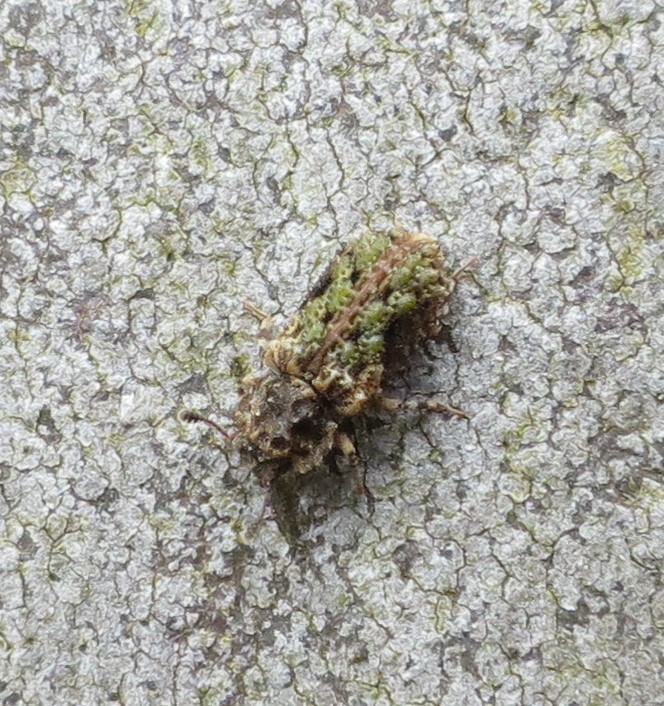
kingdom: Animalia
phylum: Arthropoda
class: Insecta
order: Coleoptera
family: Zopheridae
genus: Pristoderus
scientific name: Pristoderus
